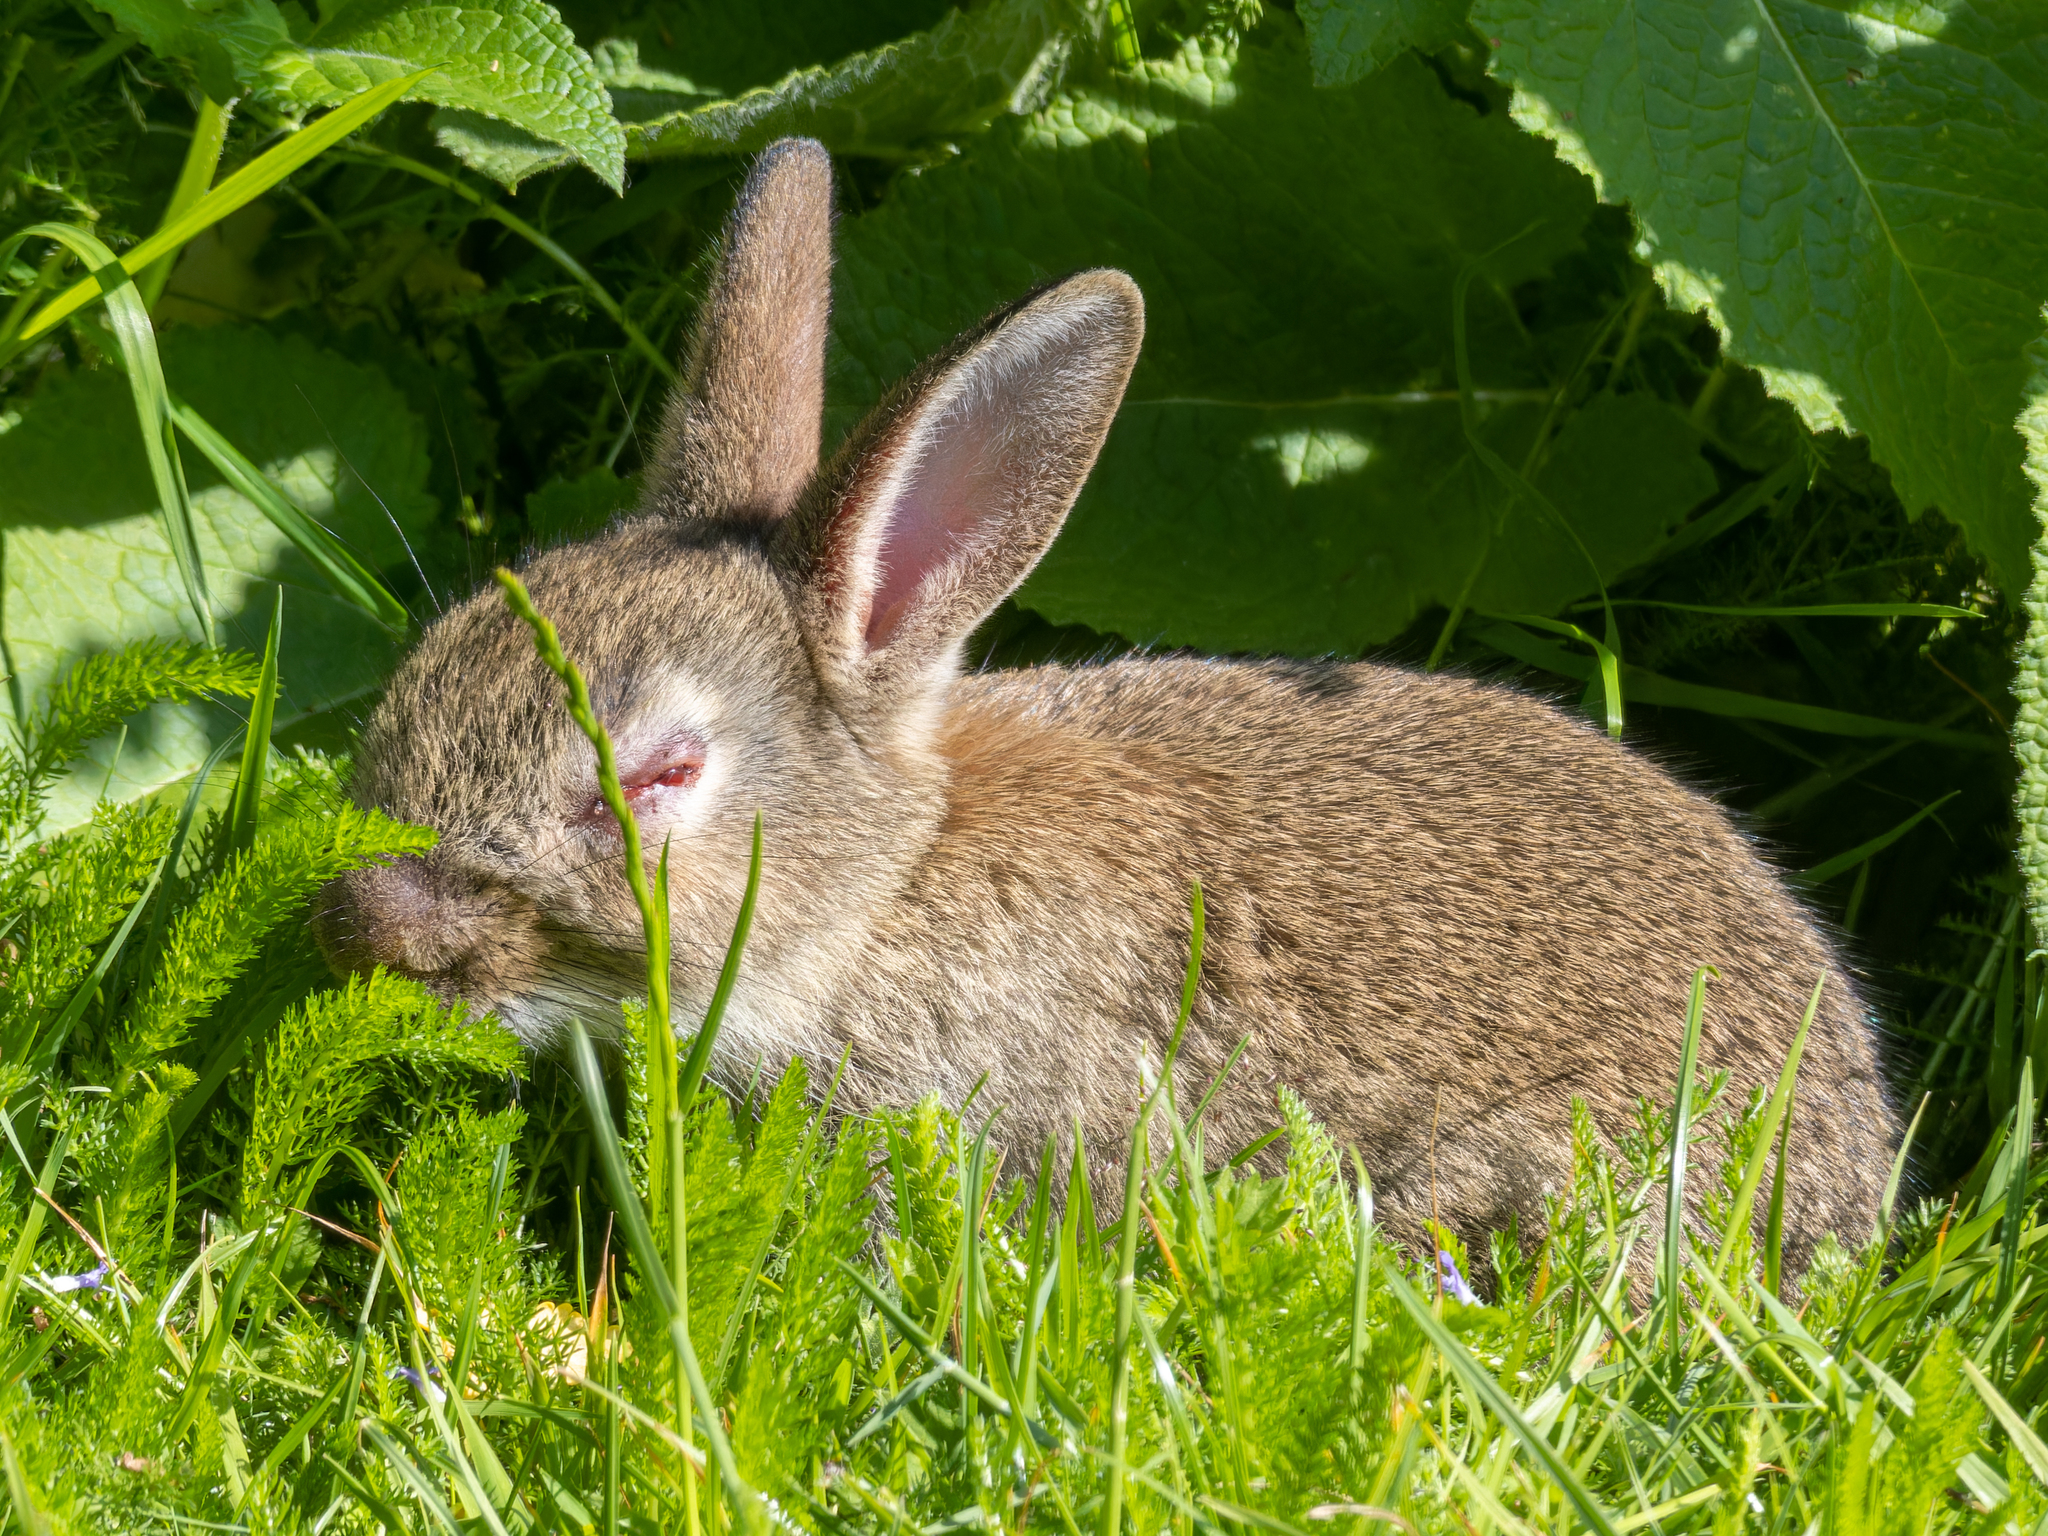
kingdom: Viruses
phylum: Nucleocytoviricota
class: Pokkesviricetes
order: Chitovirales
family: Poxviridae
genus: Leporipoxvirus
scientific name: Leporipoxvirus Myxoma virus
